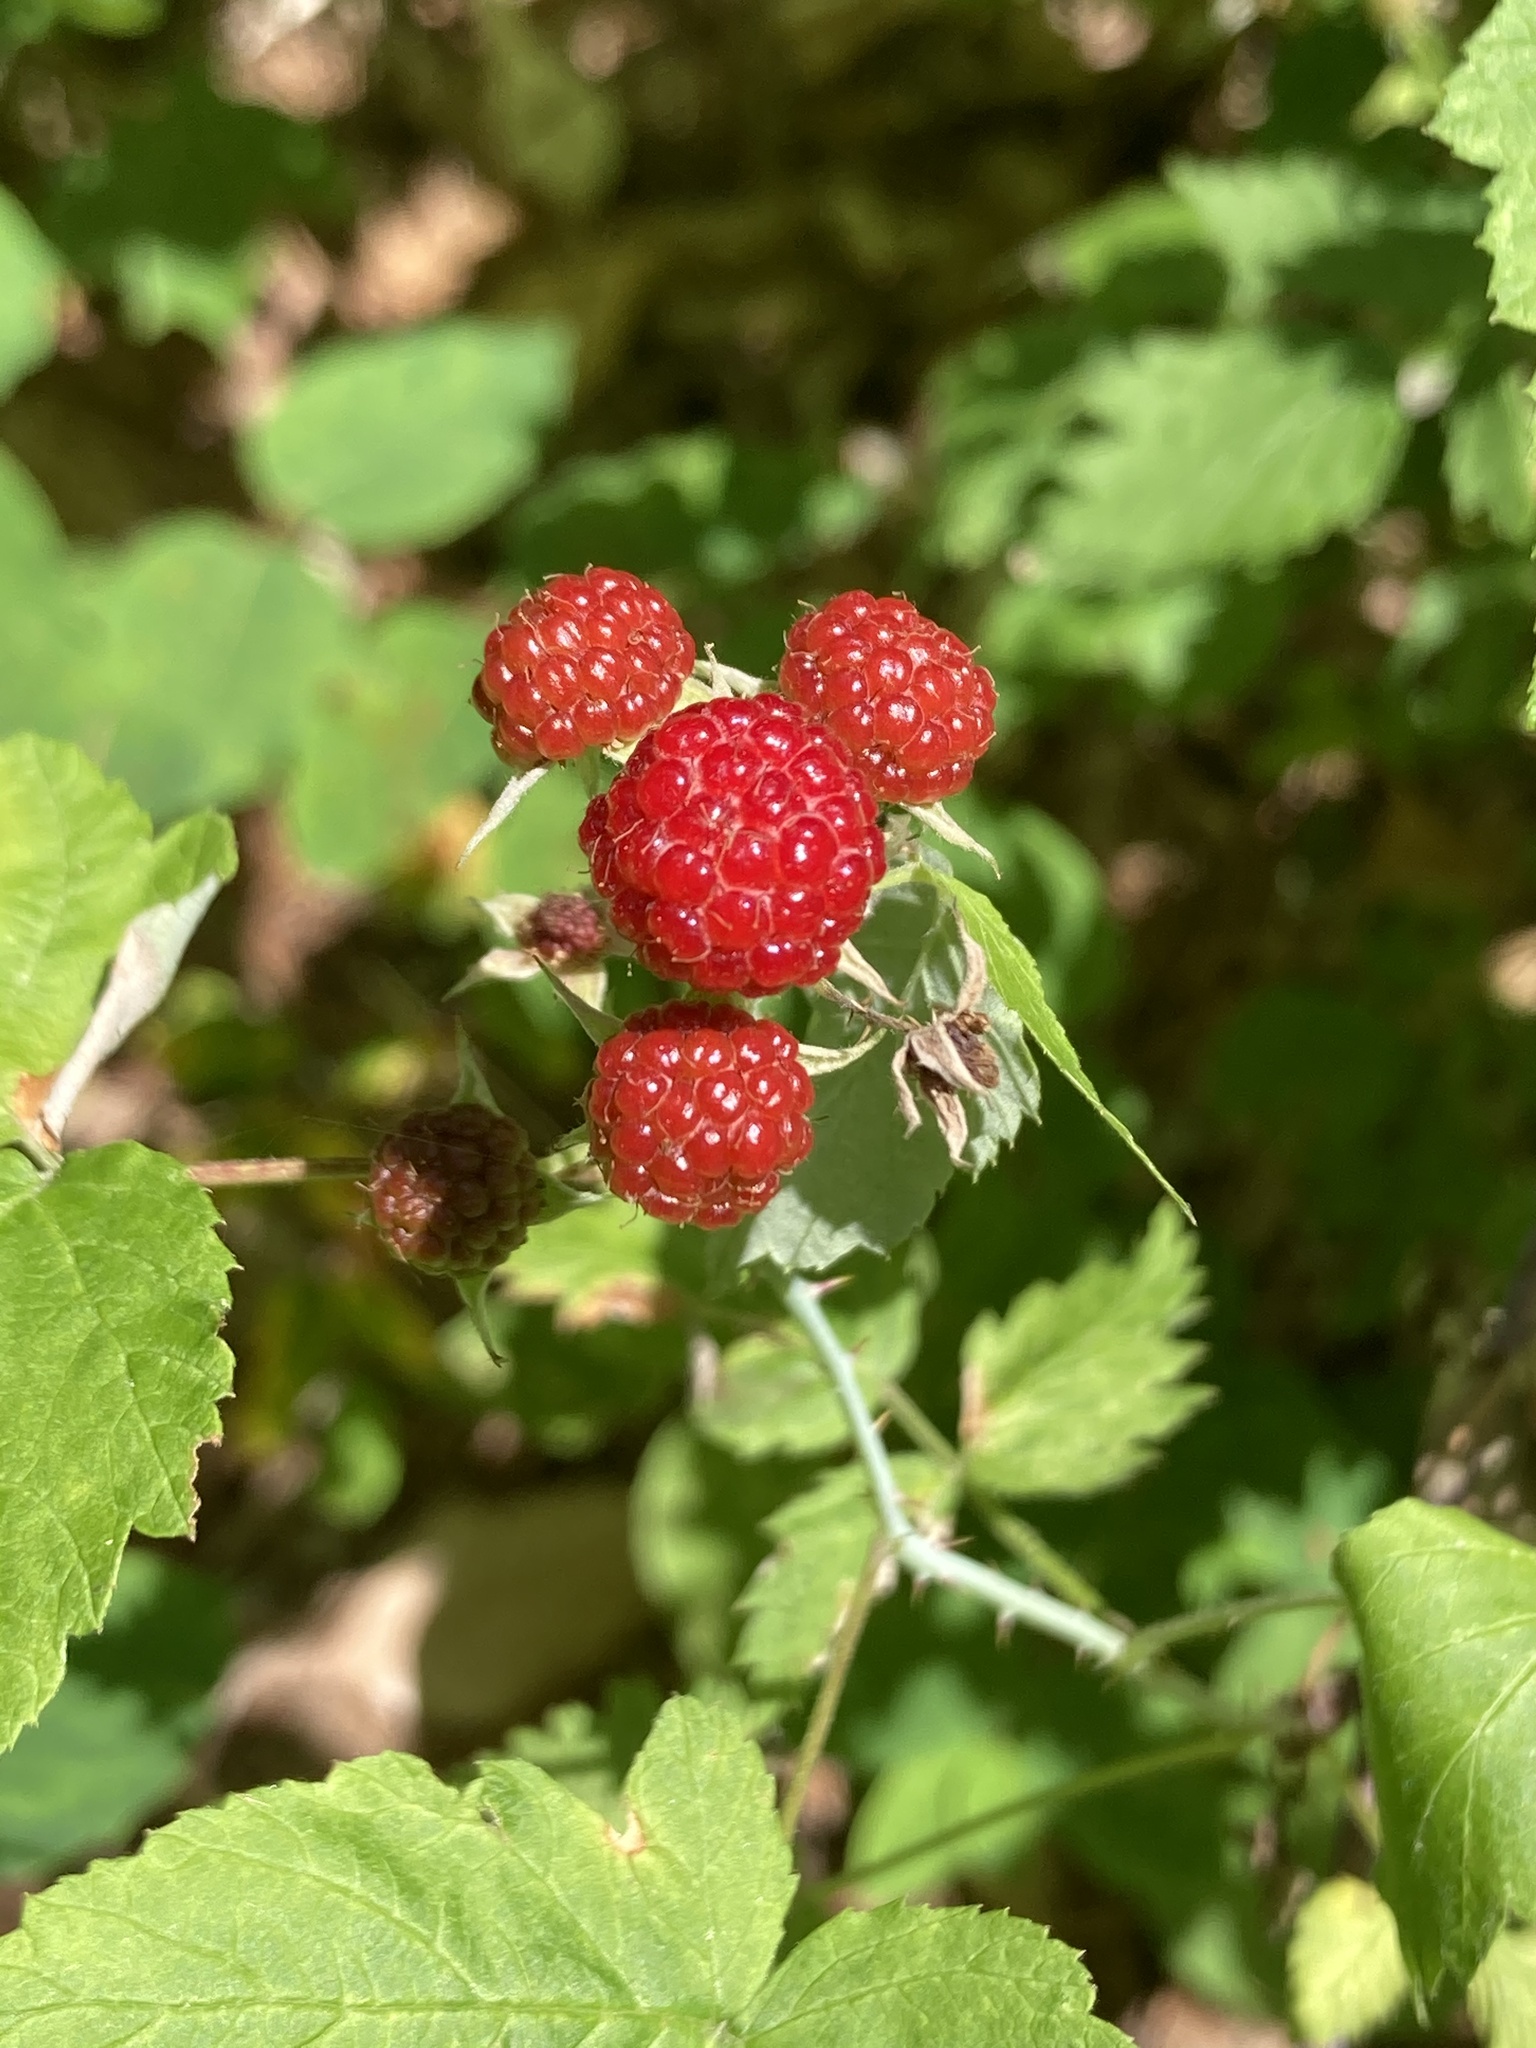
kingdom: Plantae
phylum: Tracheophyta
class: Magnoliopsida
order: Rosales
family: Rosaceae
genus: Rubus
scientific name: Rubus occidentalis
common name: Black raspberry
